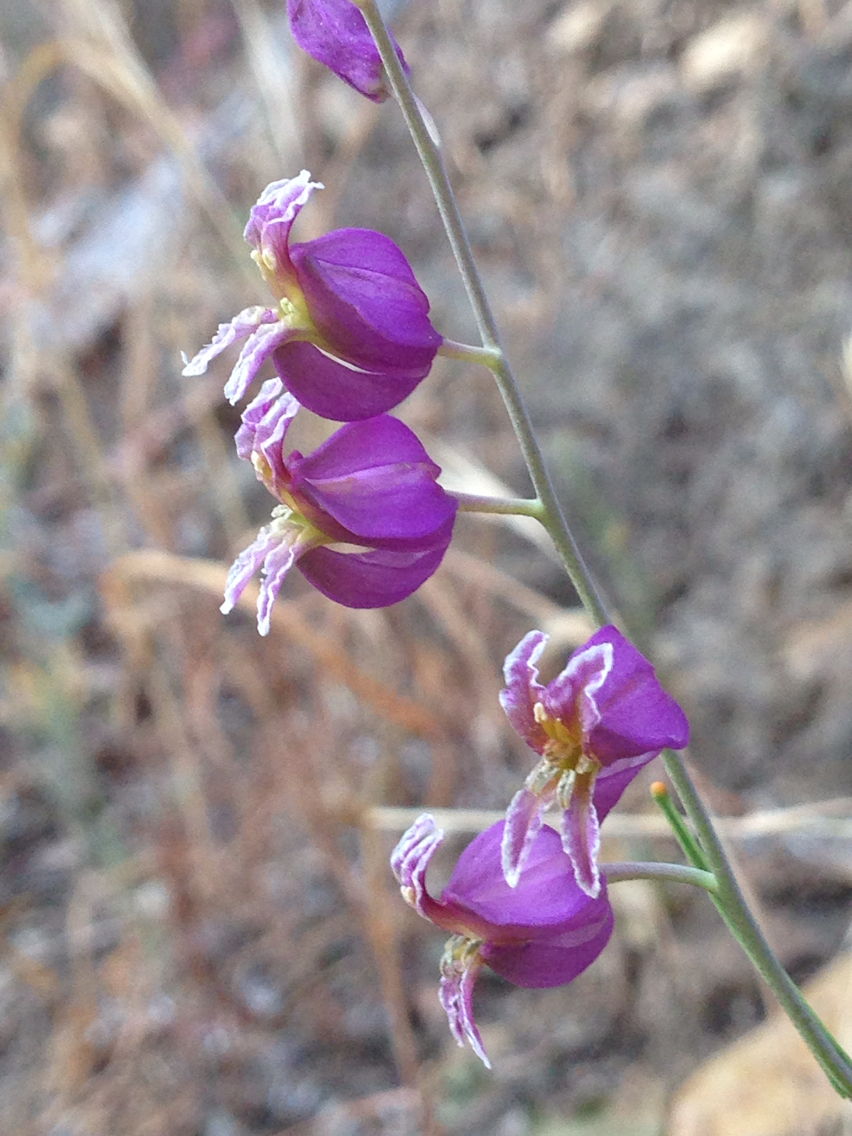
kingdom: Plantae
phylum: Tracheophyta
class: Magnoliopsida
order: Brassicales
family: Brassicaceae
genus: Streptanthus
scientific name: Streptanthus glandulosus
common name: Jewel-flower
